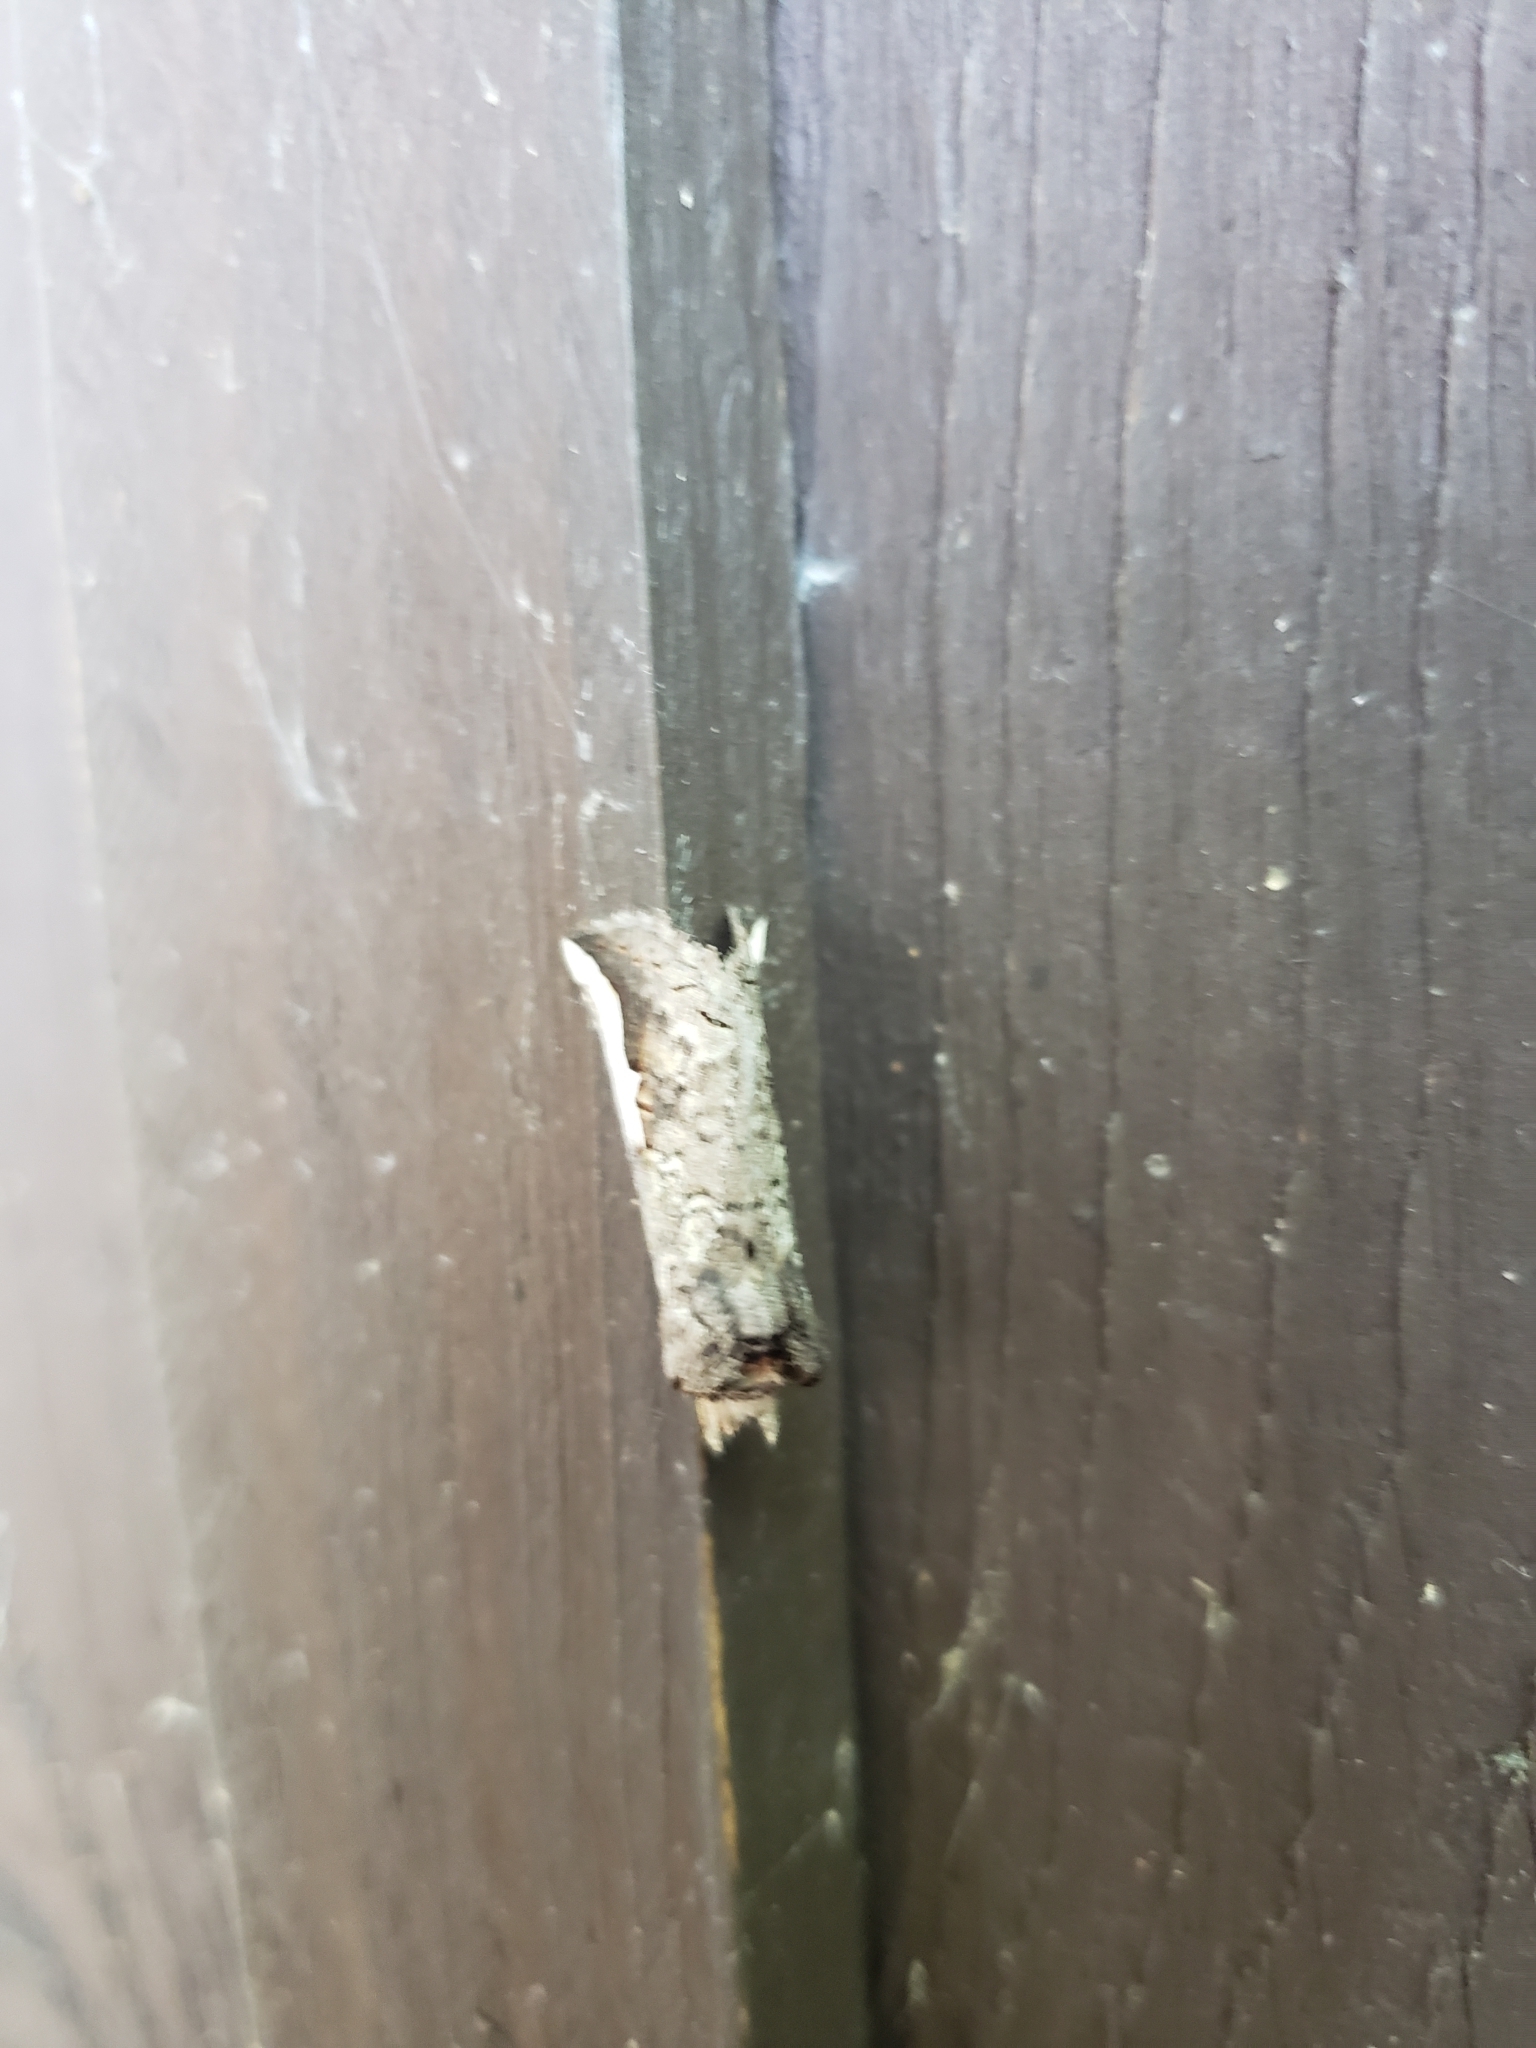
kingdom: Animalia
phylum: Arthropoda
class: Insecta
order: Lepidoptera
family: Notodontidae
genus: Symmerista
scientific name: Symmerista
